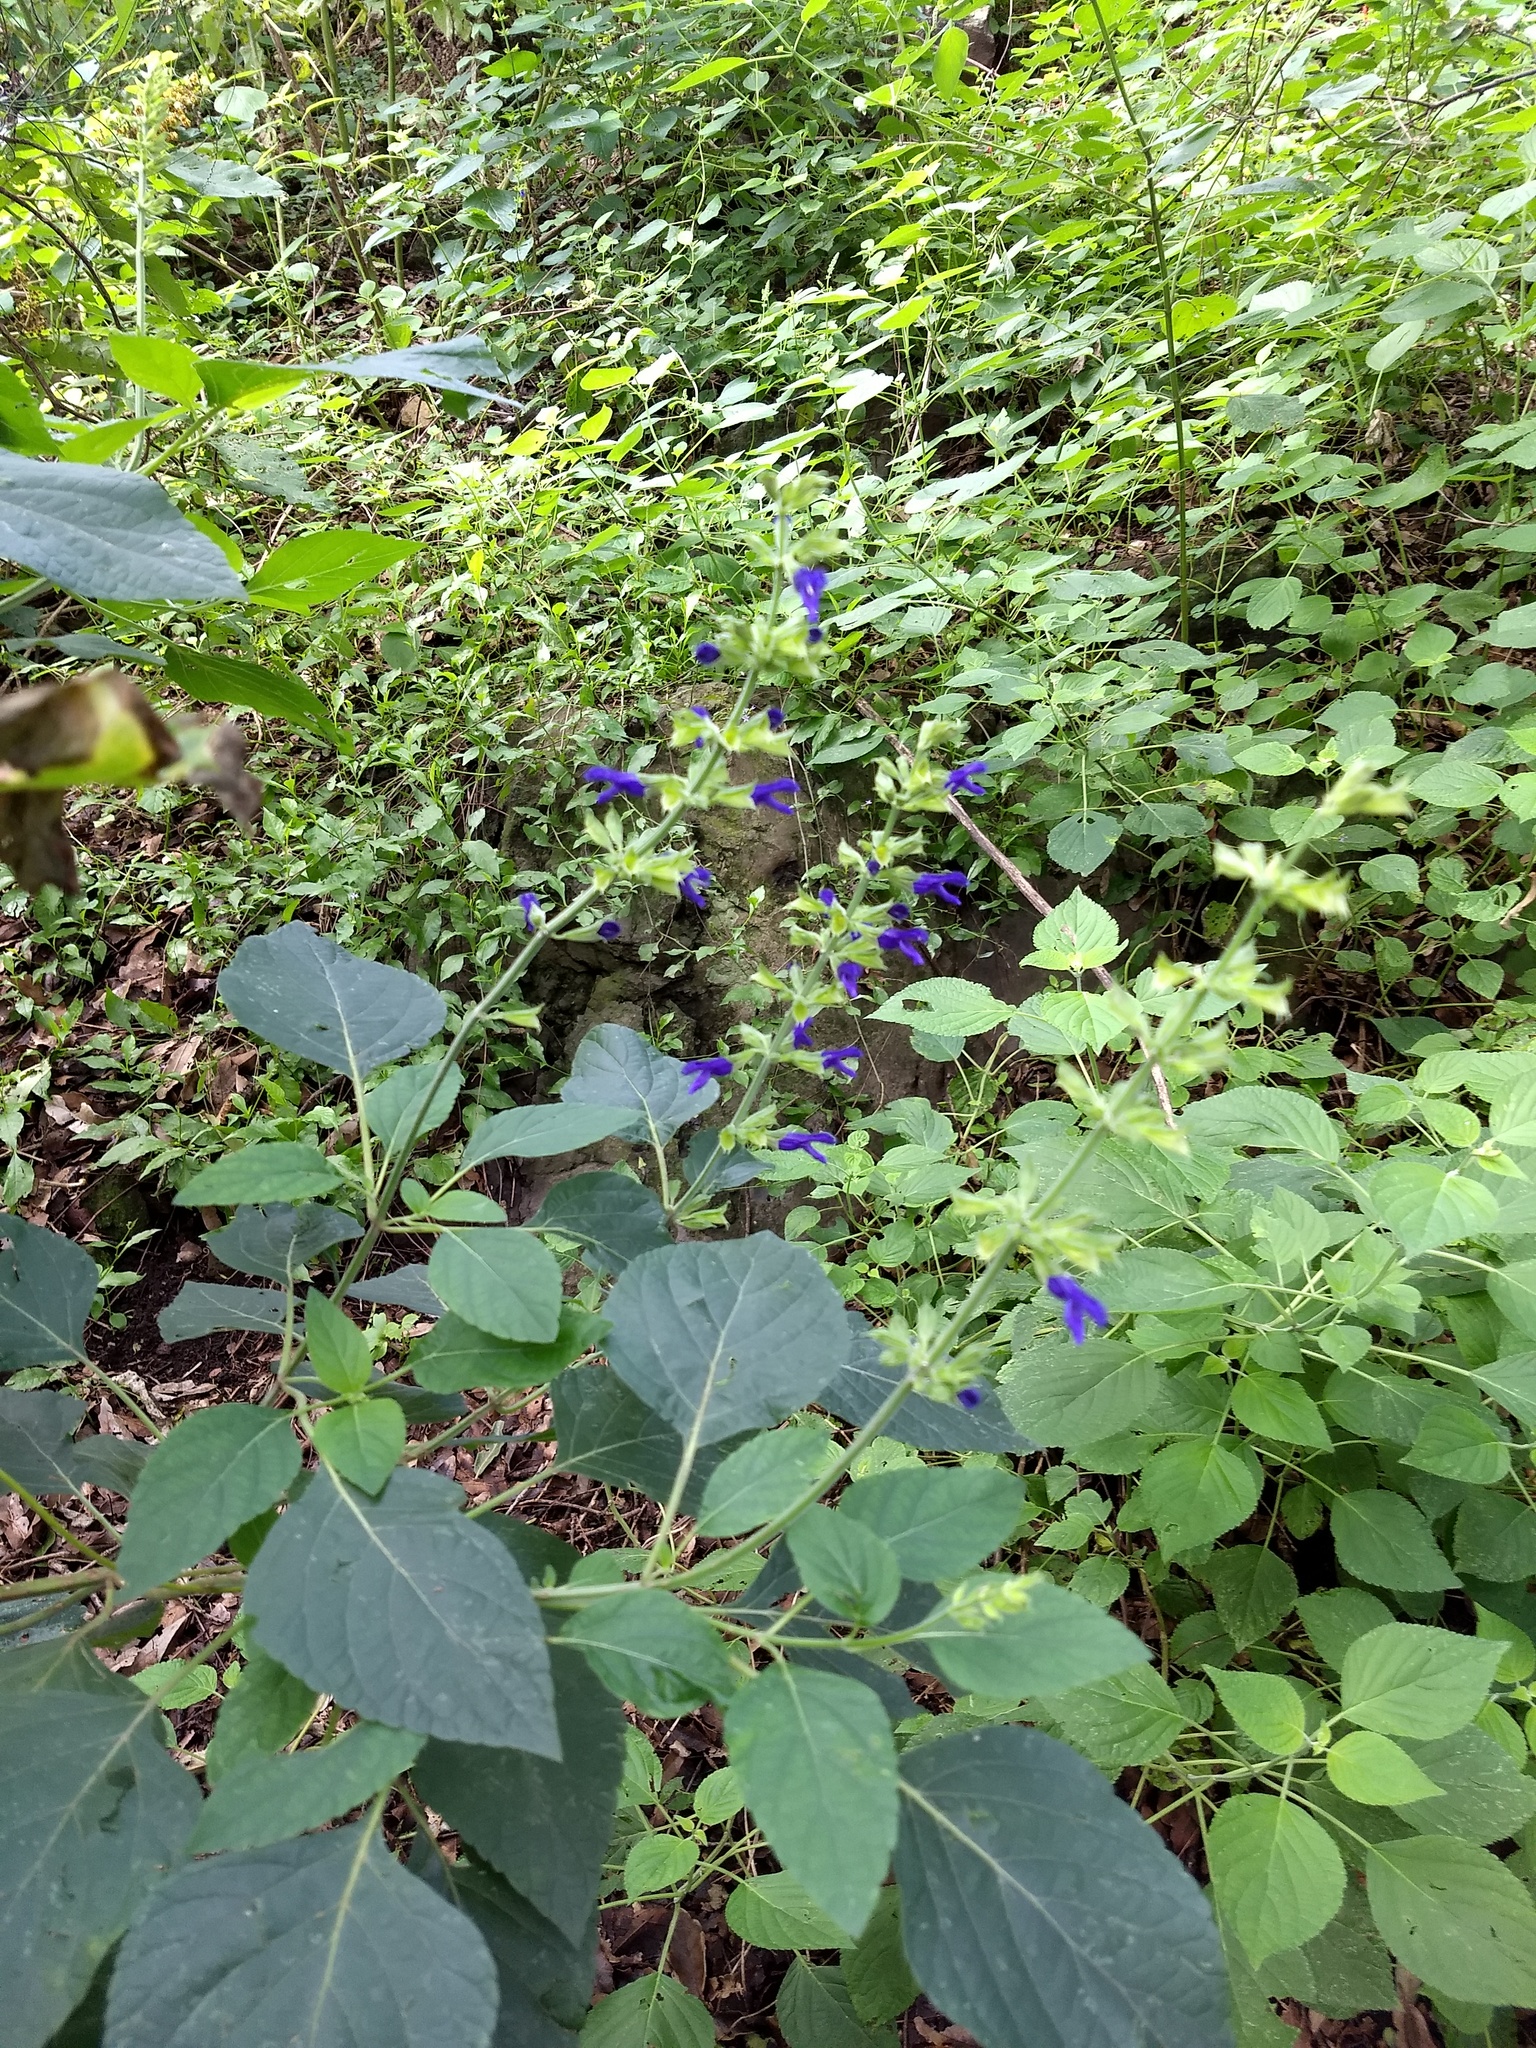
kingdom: Plantae
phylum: Tracheophyta
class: Magnoliopsida
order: Lamiales
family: Lamiaceae
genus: Salvia
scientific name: Salvia mexicana
